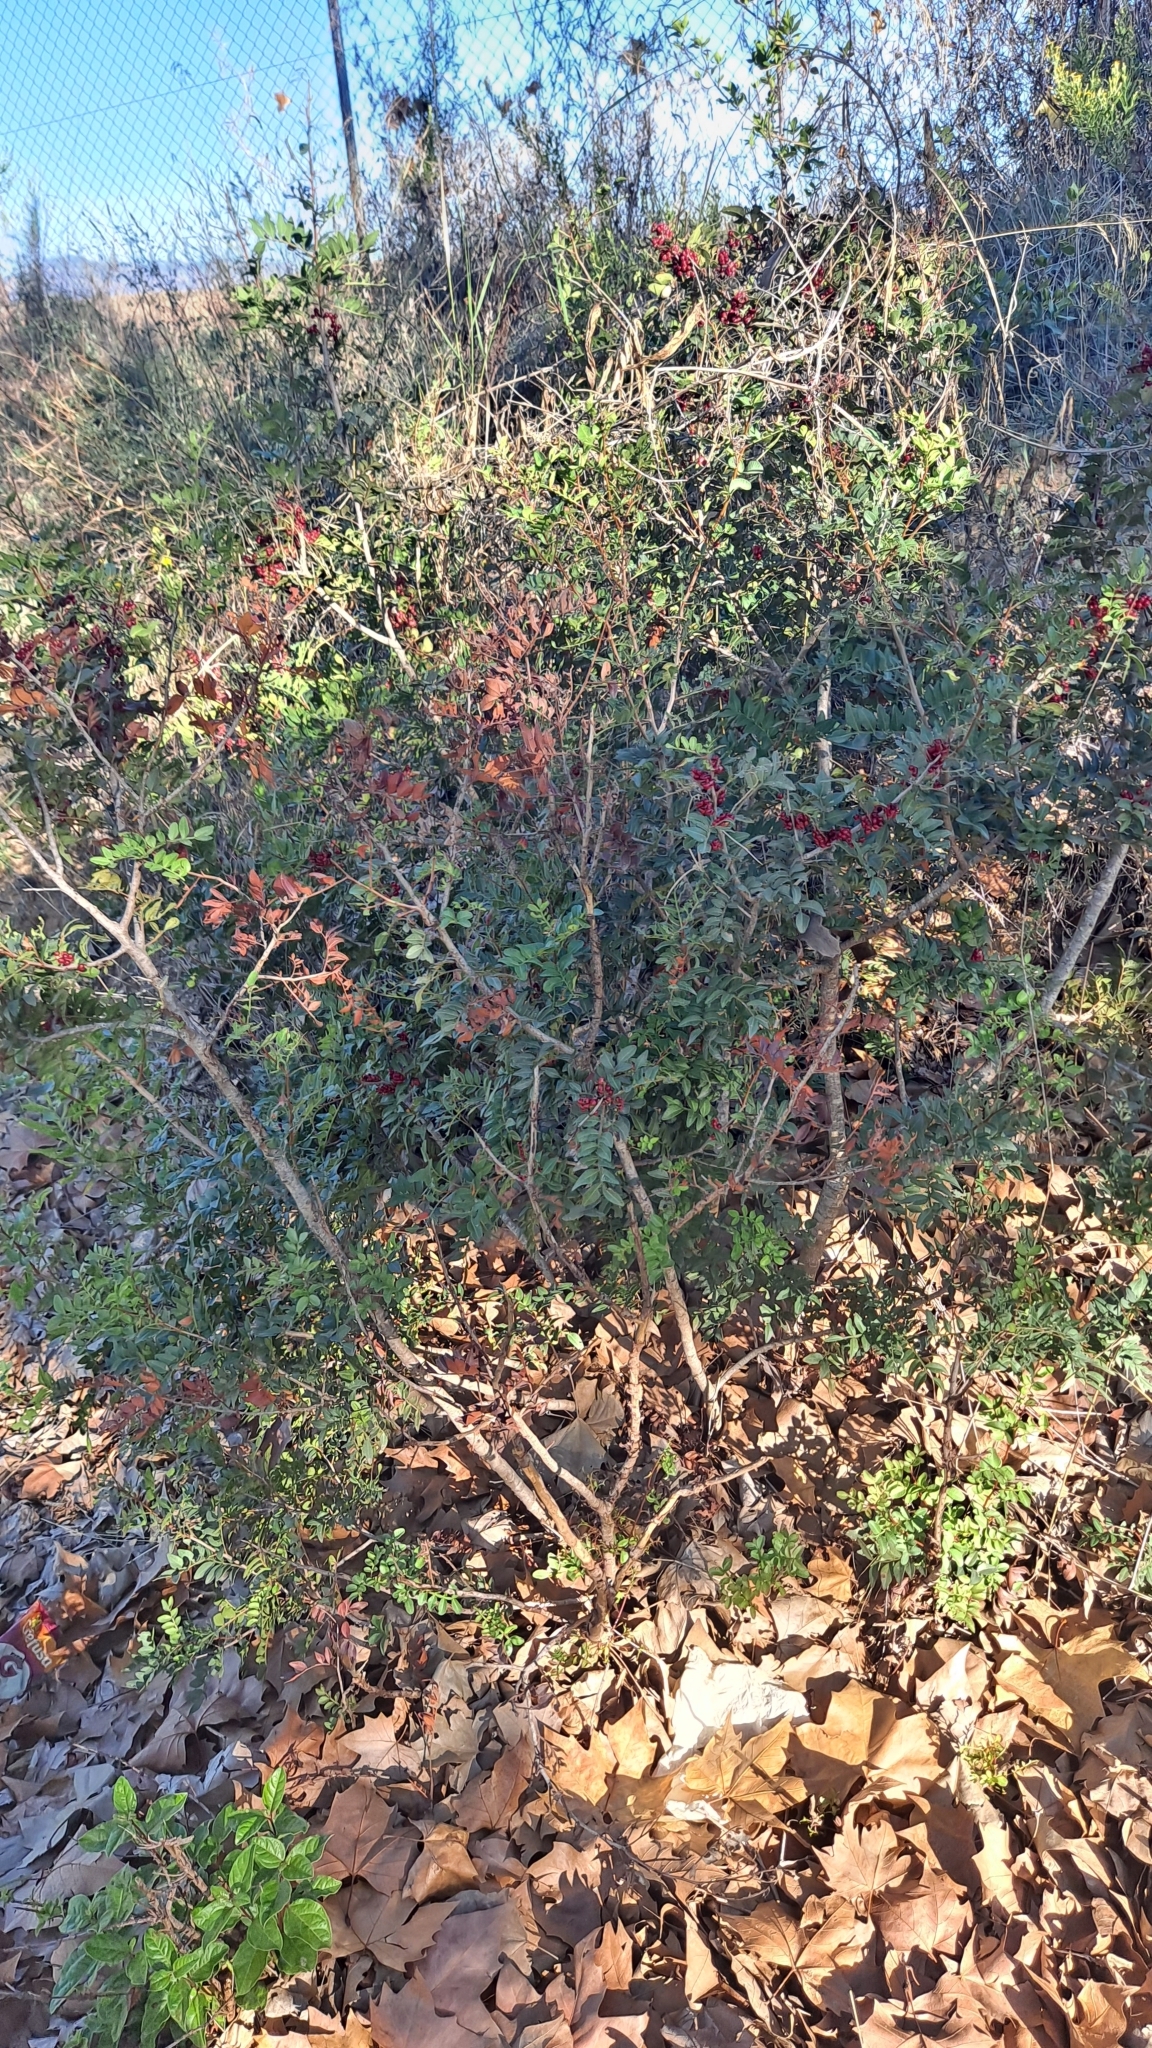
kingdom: Plantae
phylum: Tracheophyta
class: Magnoliopsida
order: Sapindales
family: Anacardiaceae
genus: Pistacia
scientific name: Pistacia lentiscus
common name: Lentisk
